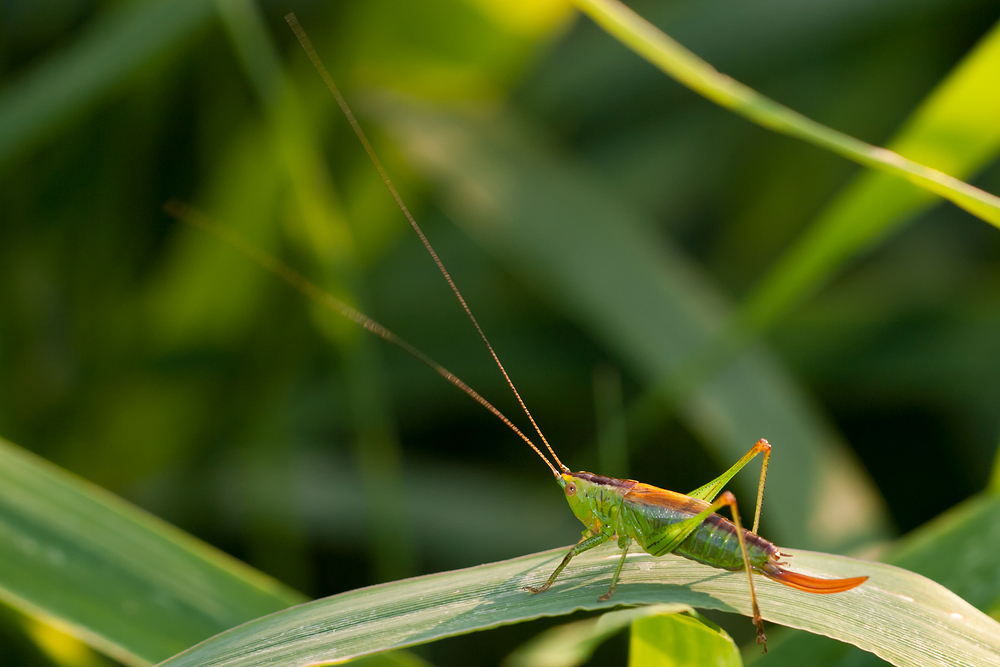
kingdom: Animalia
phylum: Arthropoda
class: Insecta
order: Orthoptera
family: Tettigoniidae
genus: Conocephalus
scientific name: Conocephalus dorsalis
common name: Short-winged conehead
